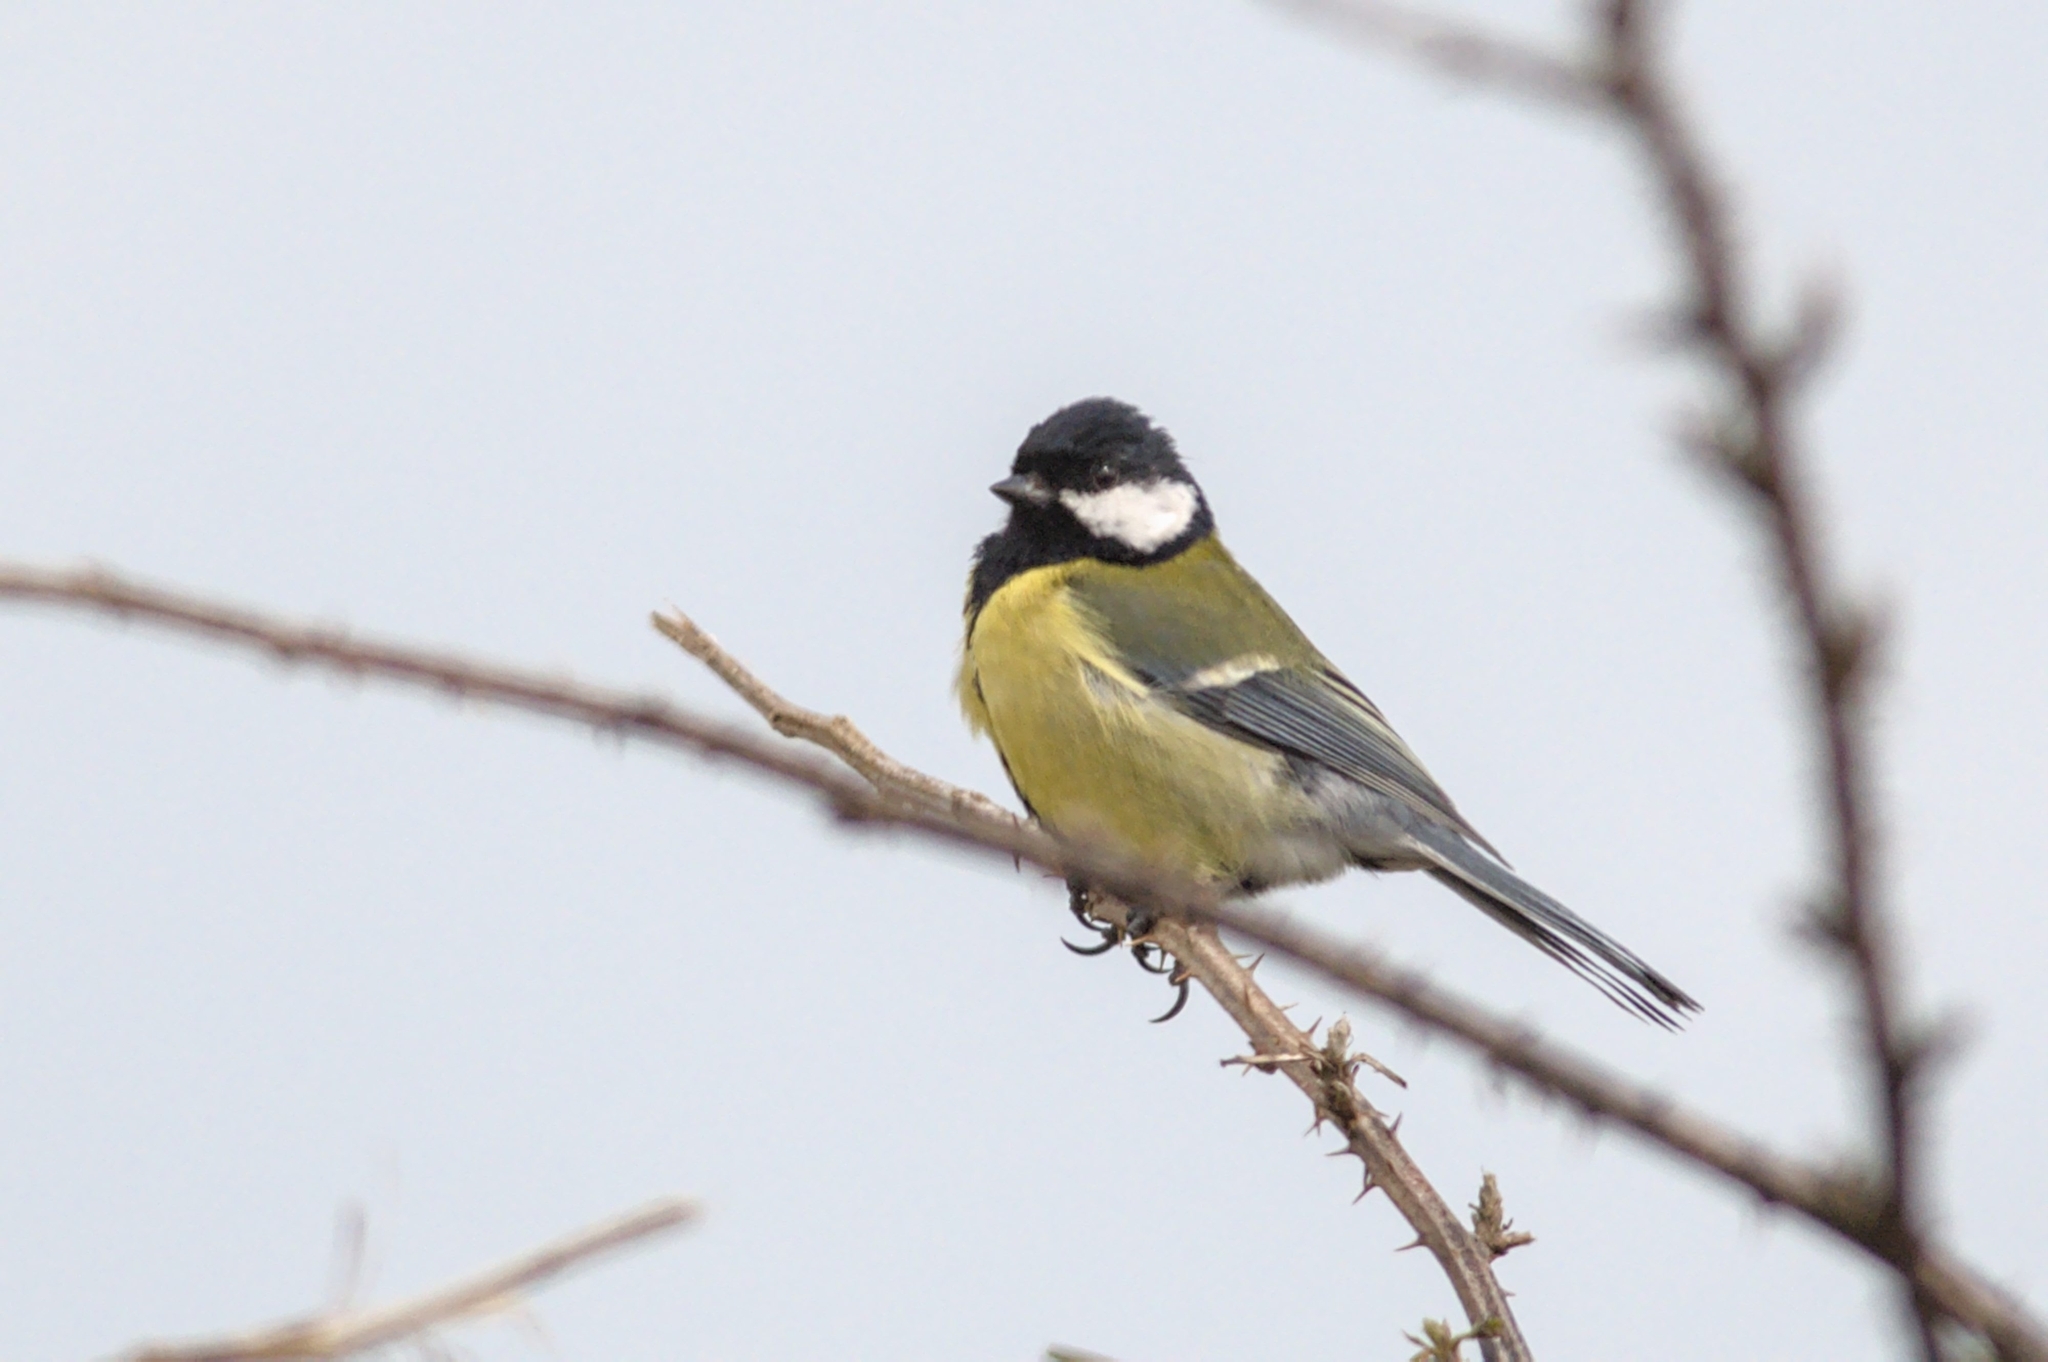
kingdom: Animalia
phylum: Chordata
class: Aves
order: Passeriformes
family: Paridae
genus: Parus
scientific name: Parus major
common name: Great tit
